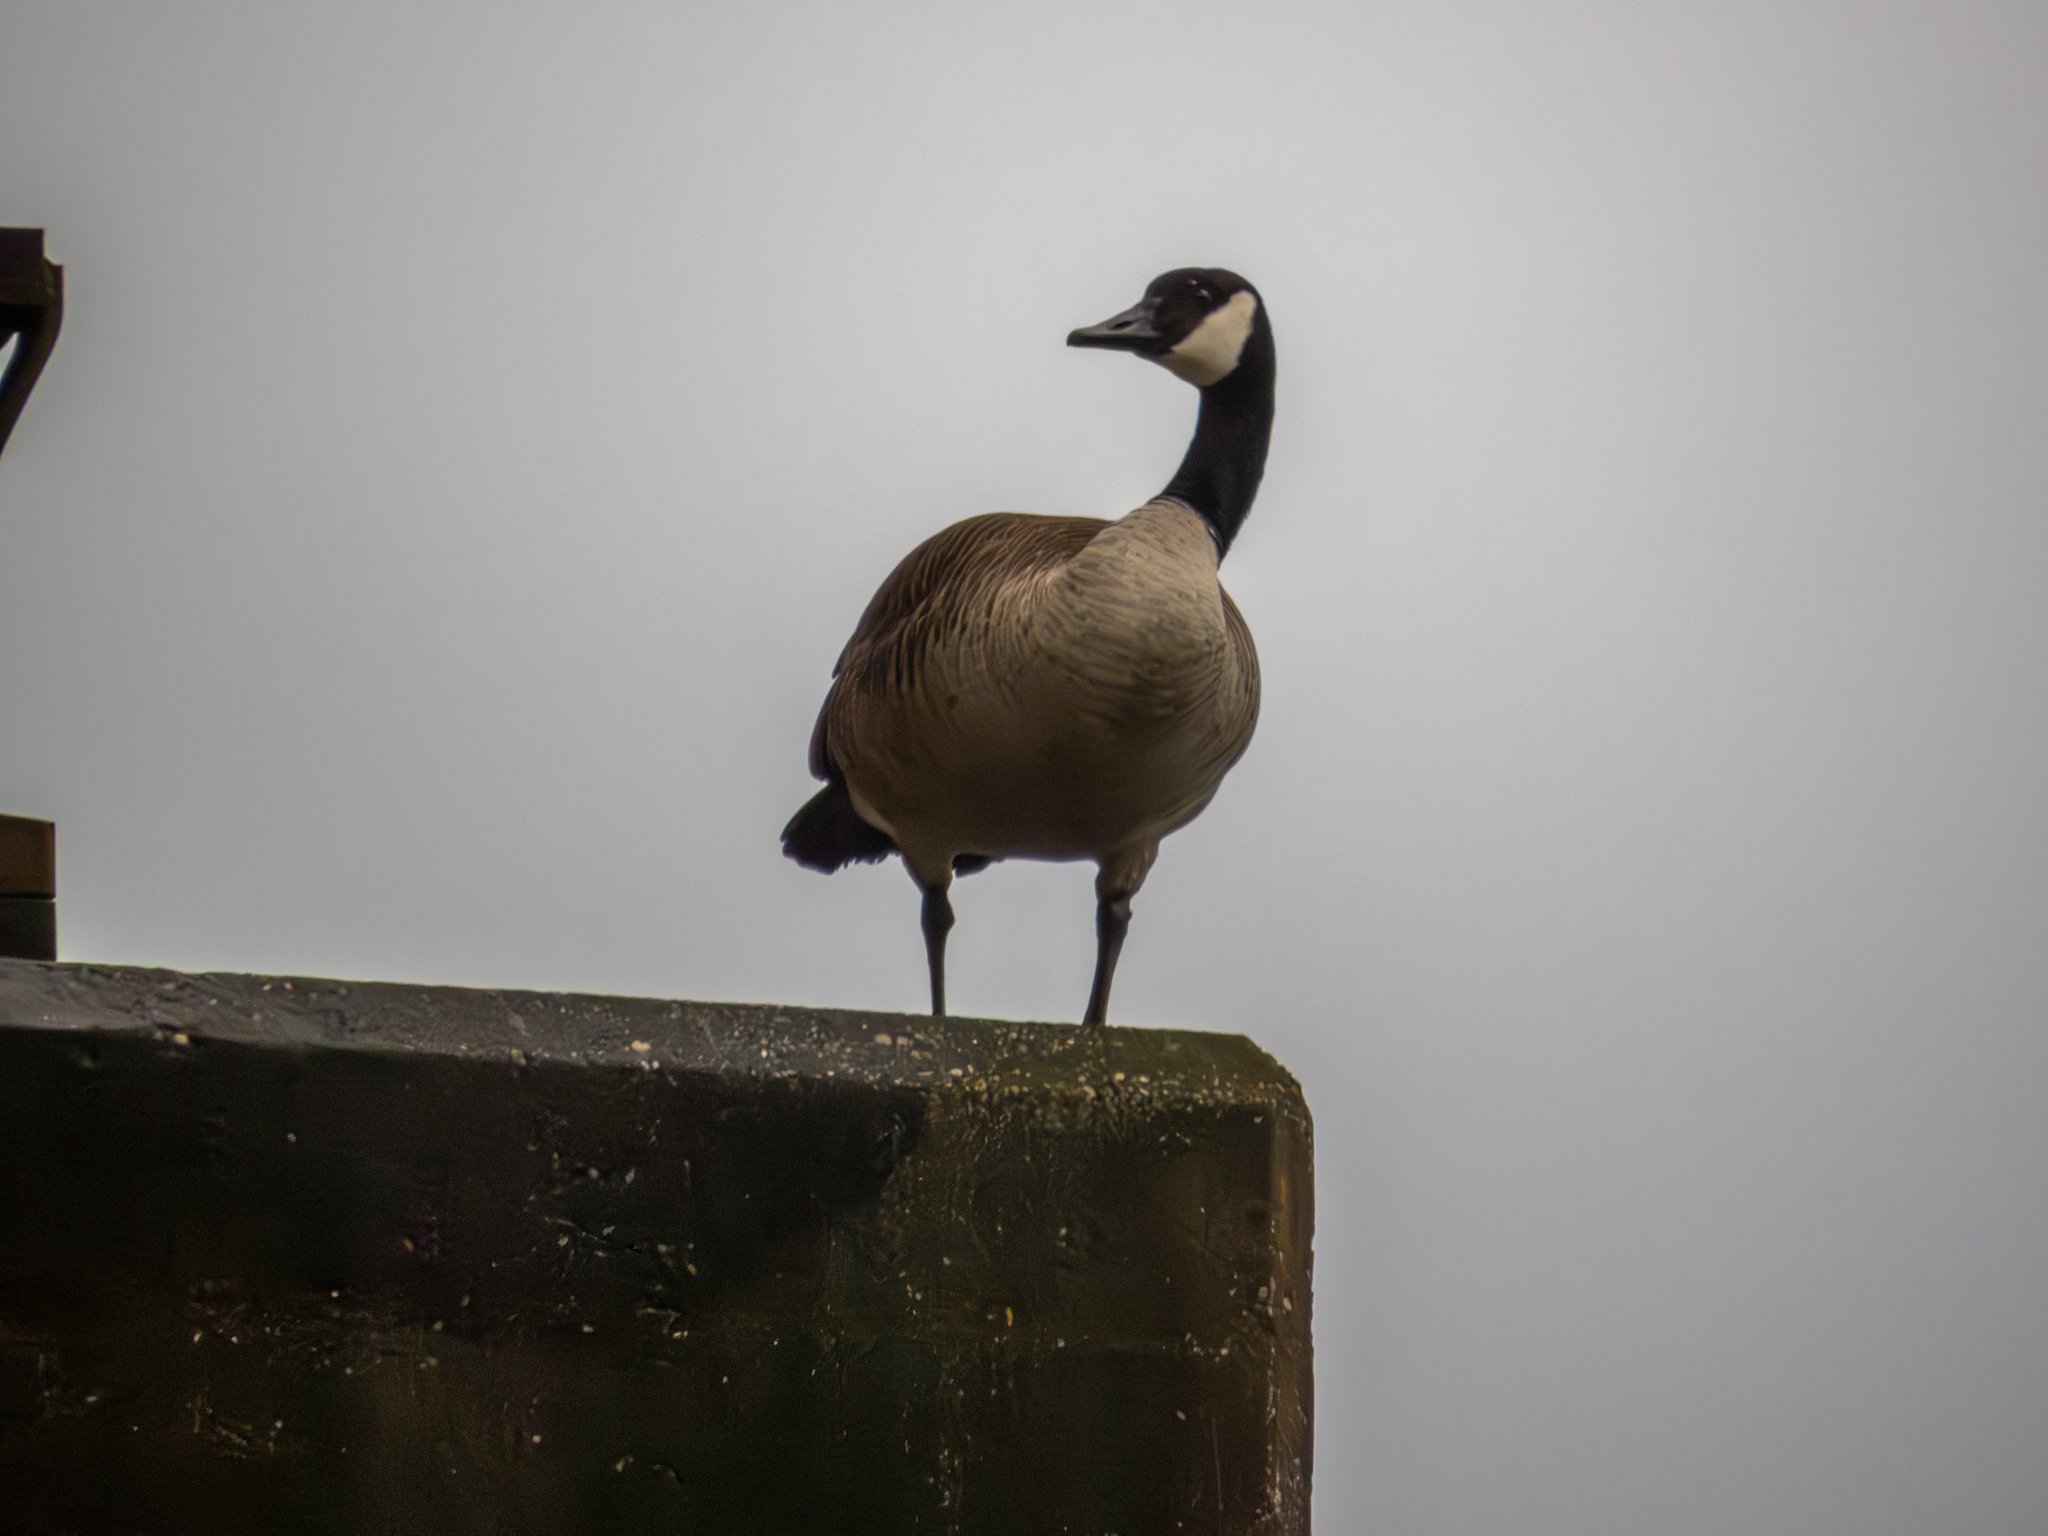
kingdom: Animalia
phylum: Chordata
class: Aves
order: Anseriformes
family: Anatidae
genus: Branta
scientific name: Branta canadensis
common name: Canada goose
